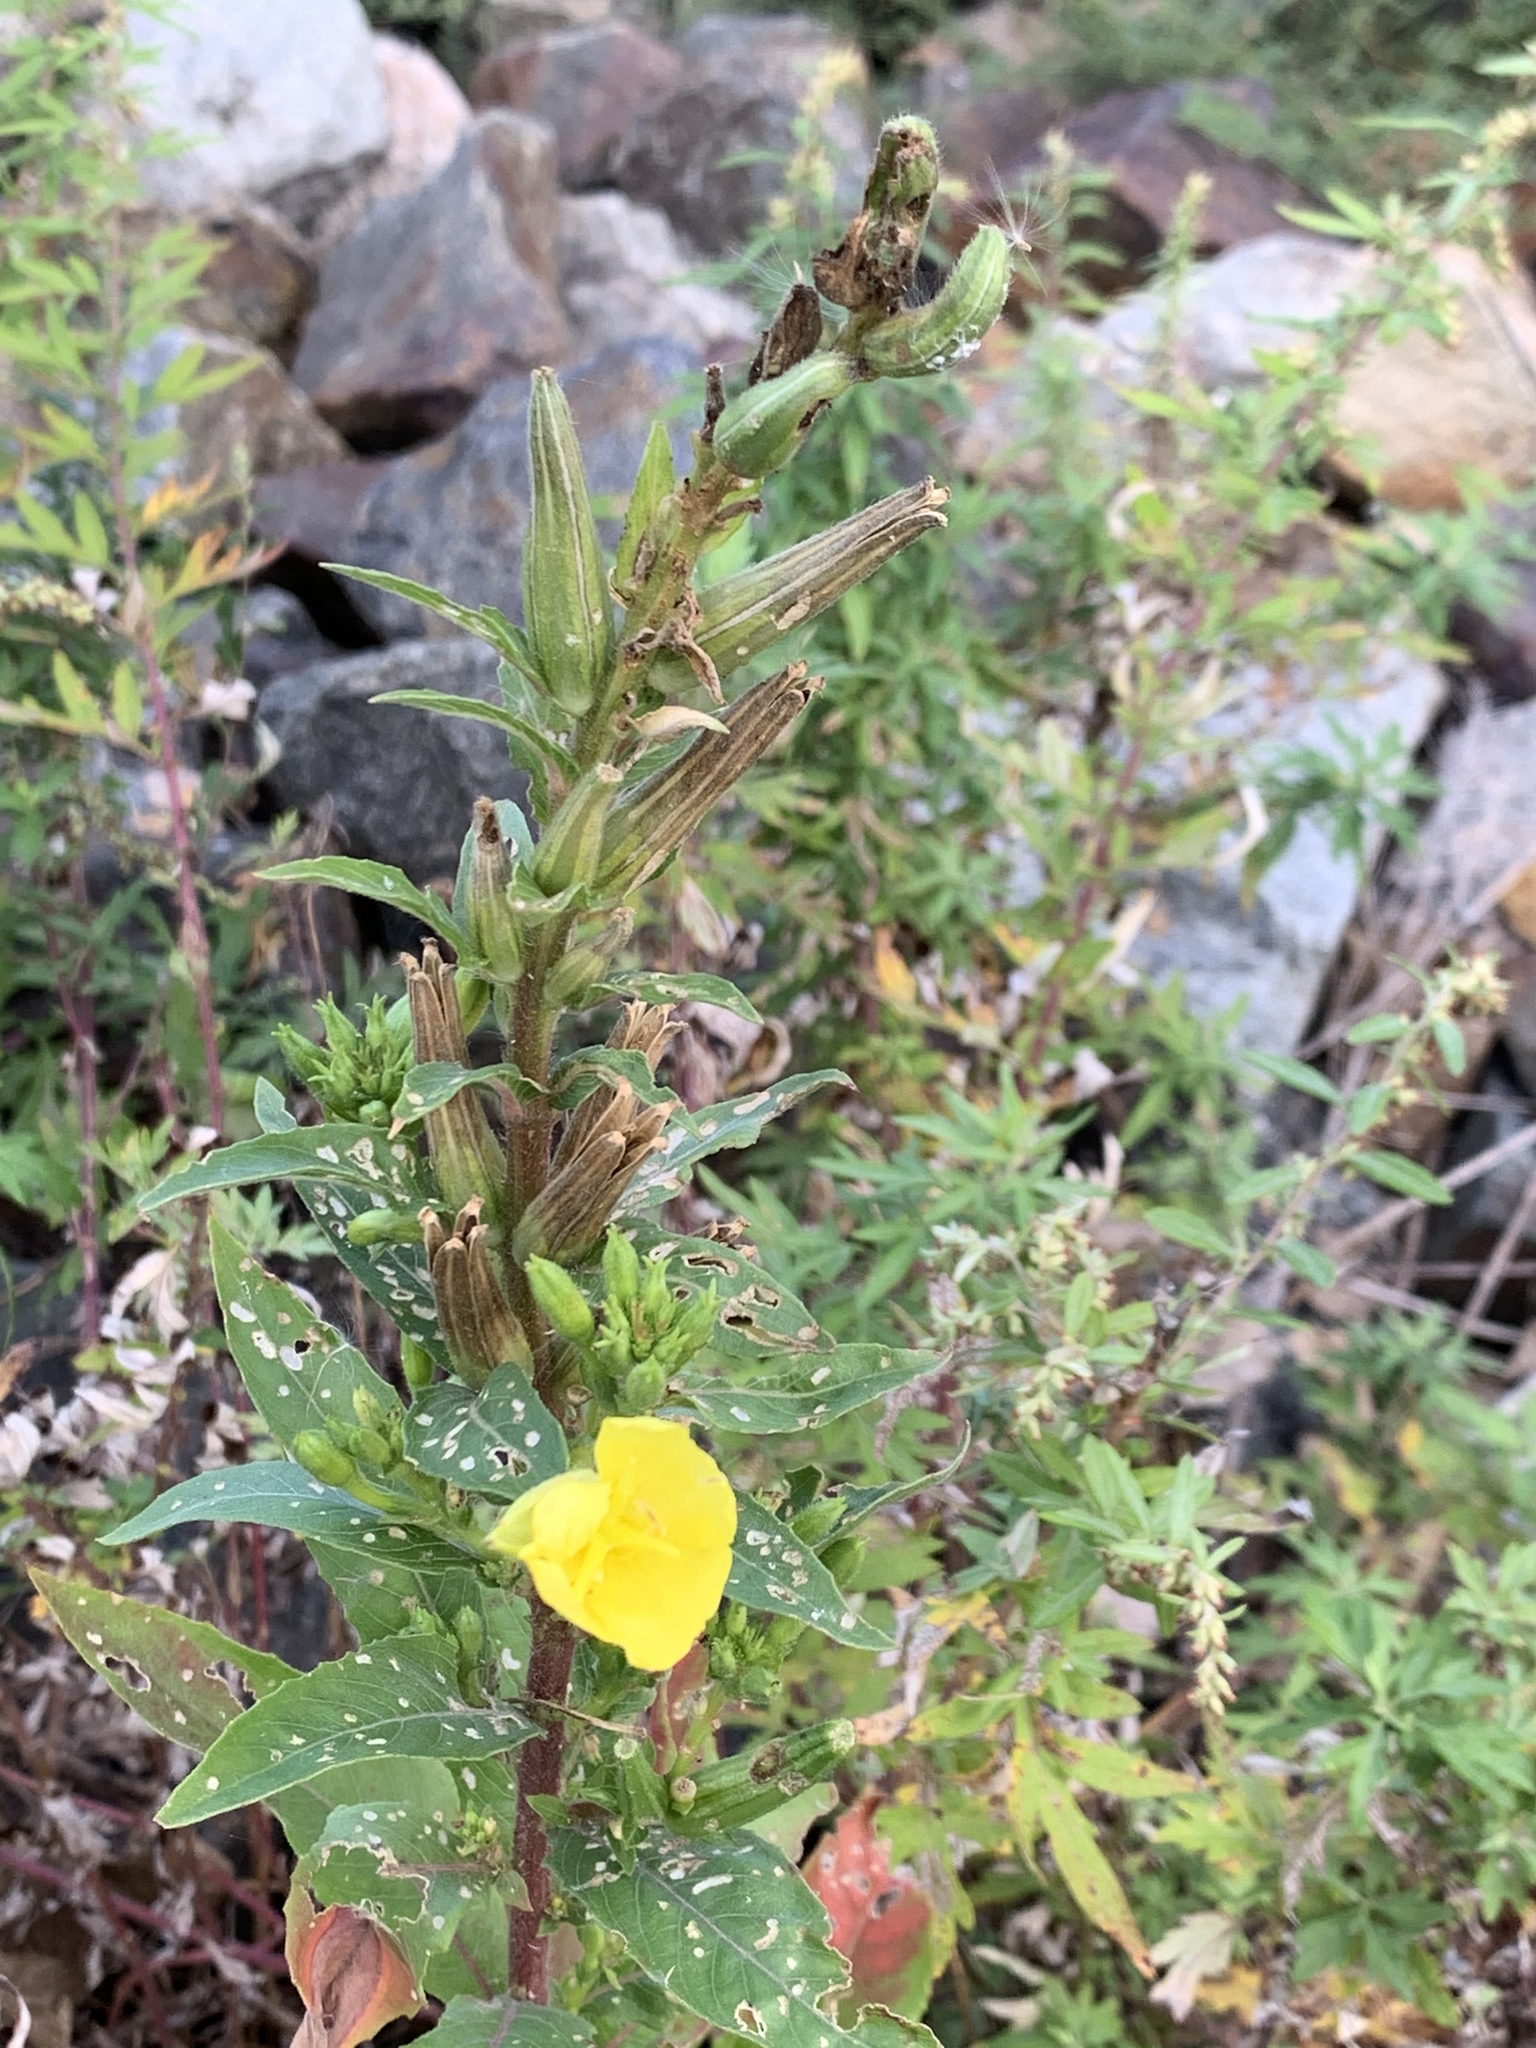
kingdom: Plantae
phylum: Tracheophyta
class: Magnoliopsida
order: Myrtales
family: Onagraceae
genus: Oenothera
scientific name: Oenothera biennis
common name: Common evening-primrose
